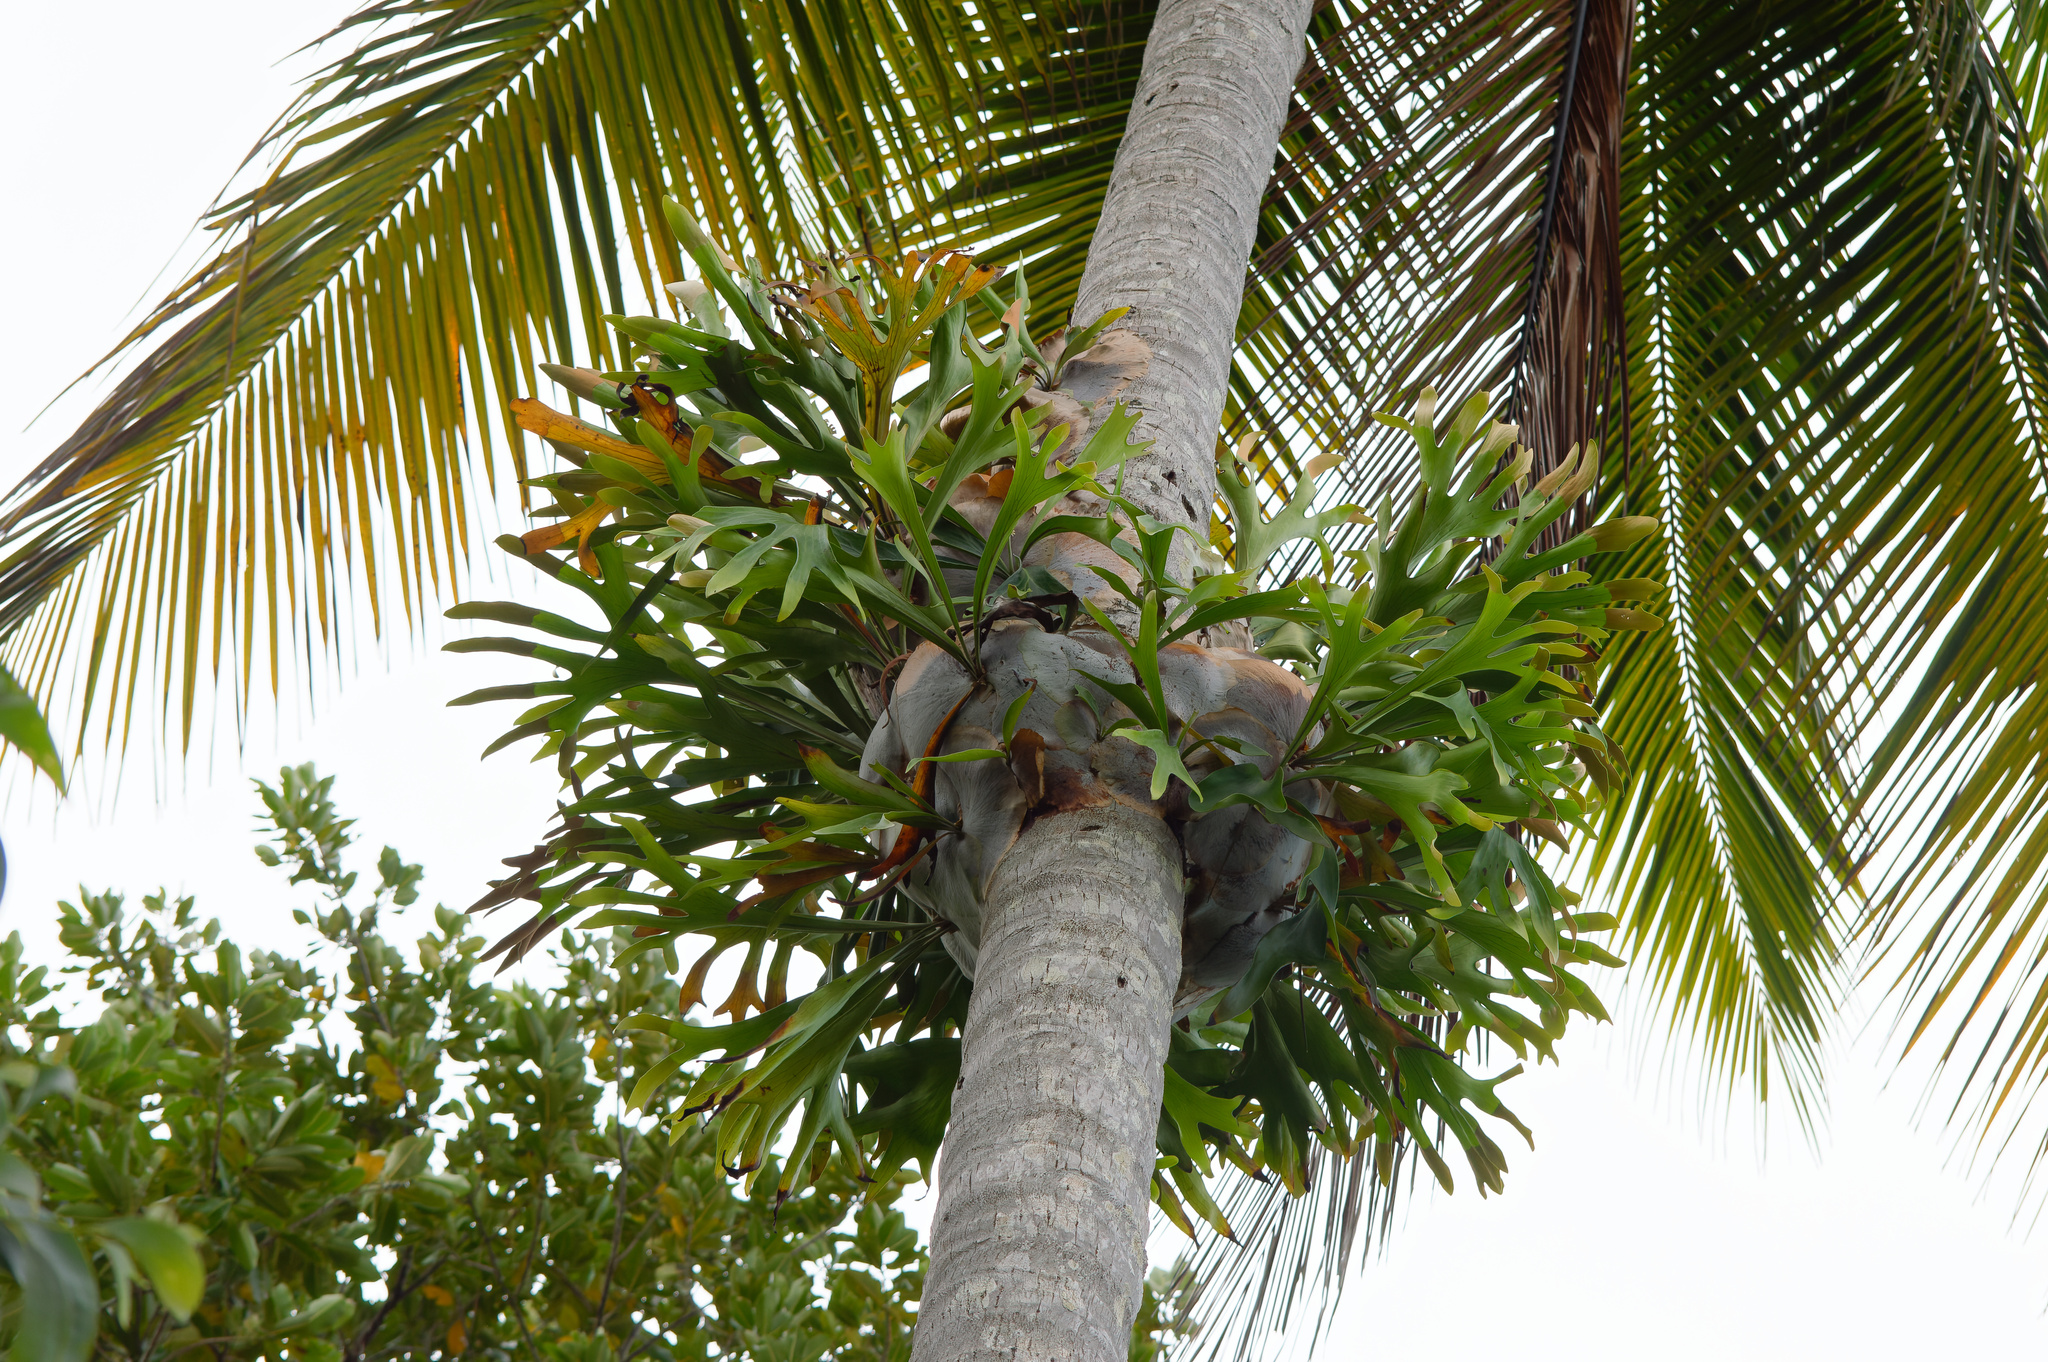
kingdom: Plantae
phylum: Tracheophyta
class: Polypodiopsida
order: Polypodiales
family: Polypodiaceae
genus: Platycerium
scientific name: Platycerium hillii
